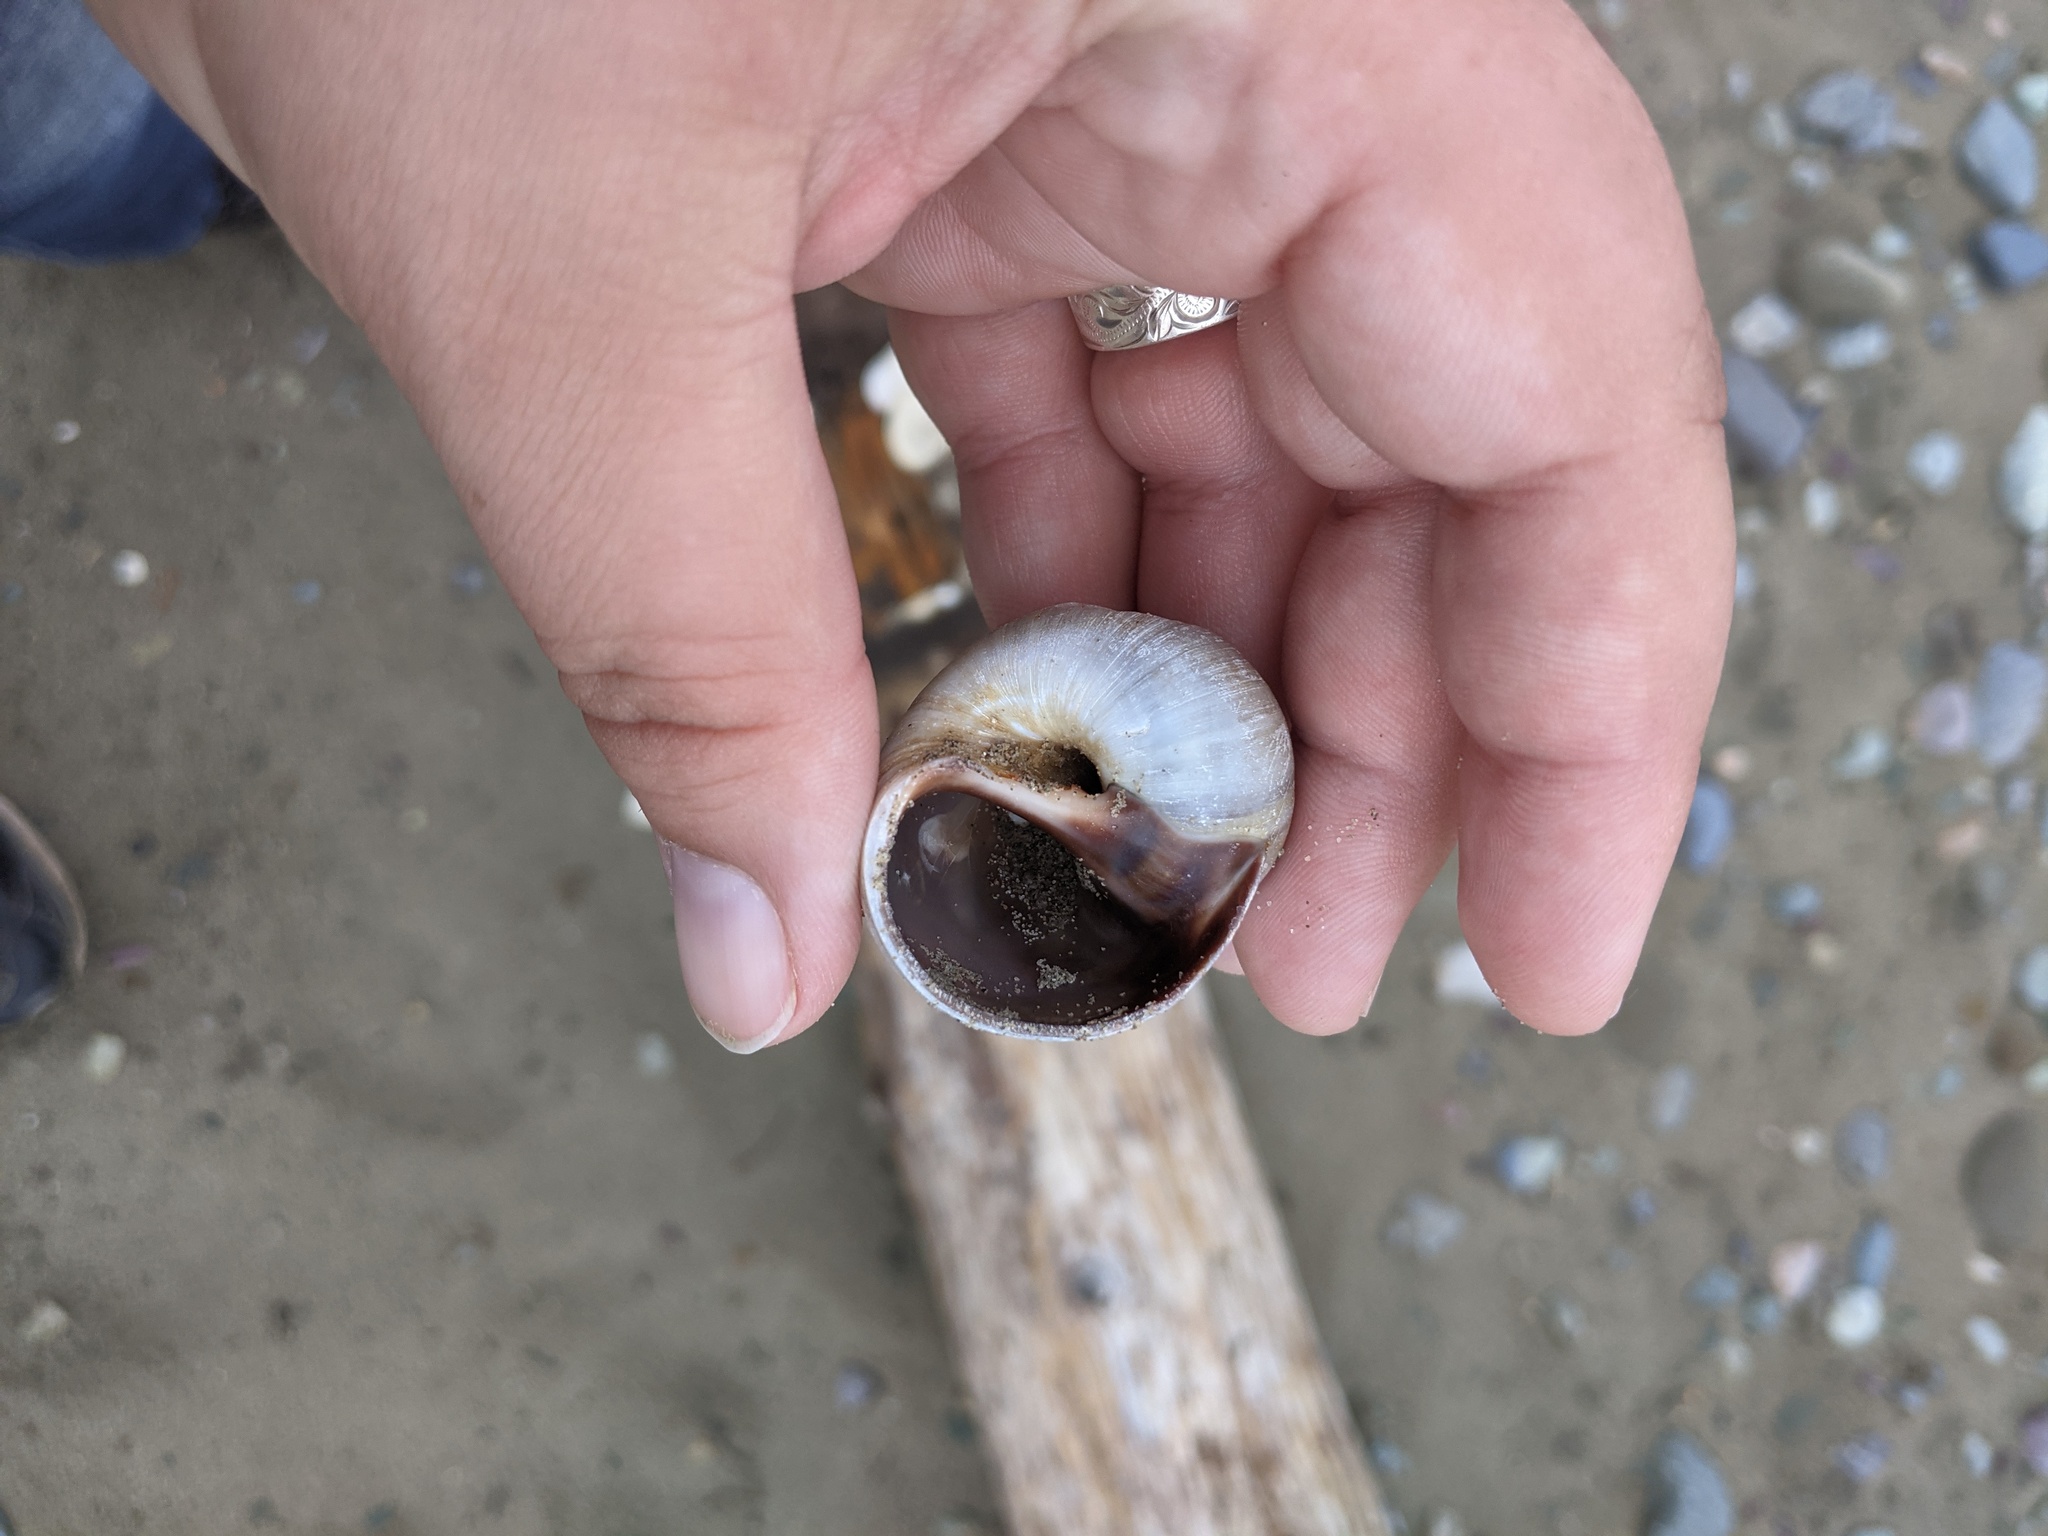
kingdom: Animalia
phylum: Mollusca
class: Gastropoda
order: Littorinimorpha
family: Naticidae
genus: Euspira
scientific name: Euspira heros
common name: Common northern moonsnail
